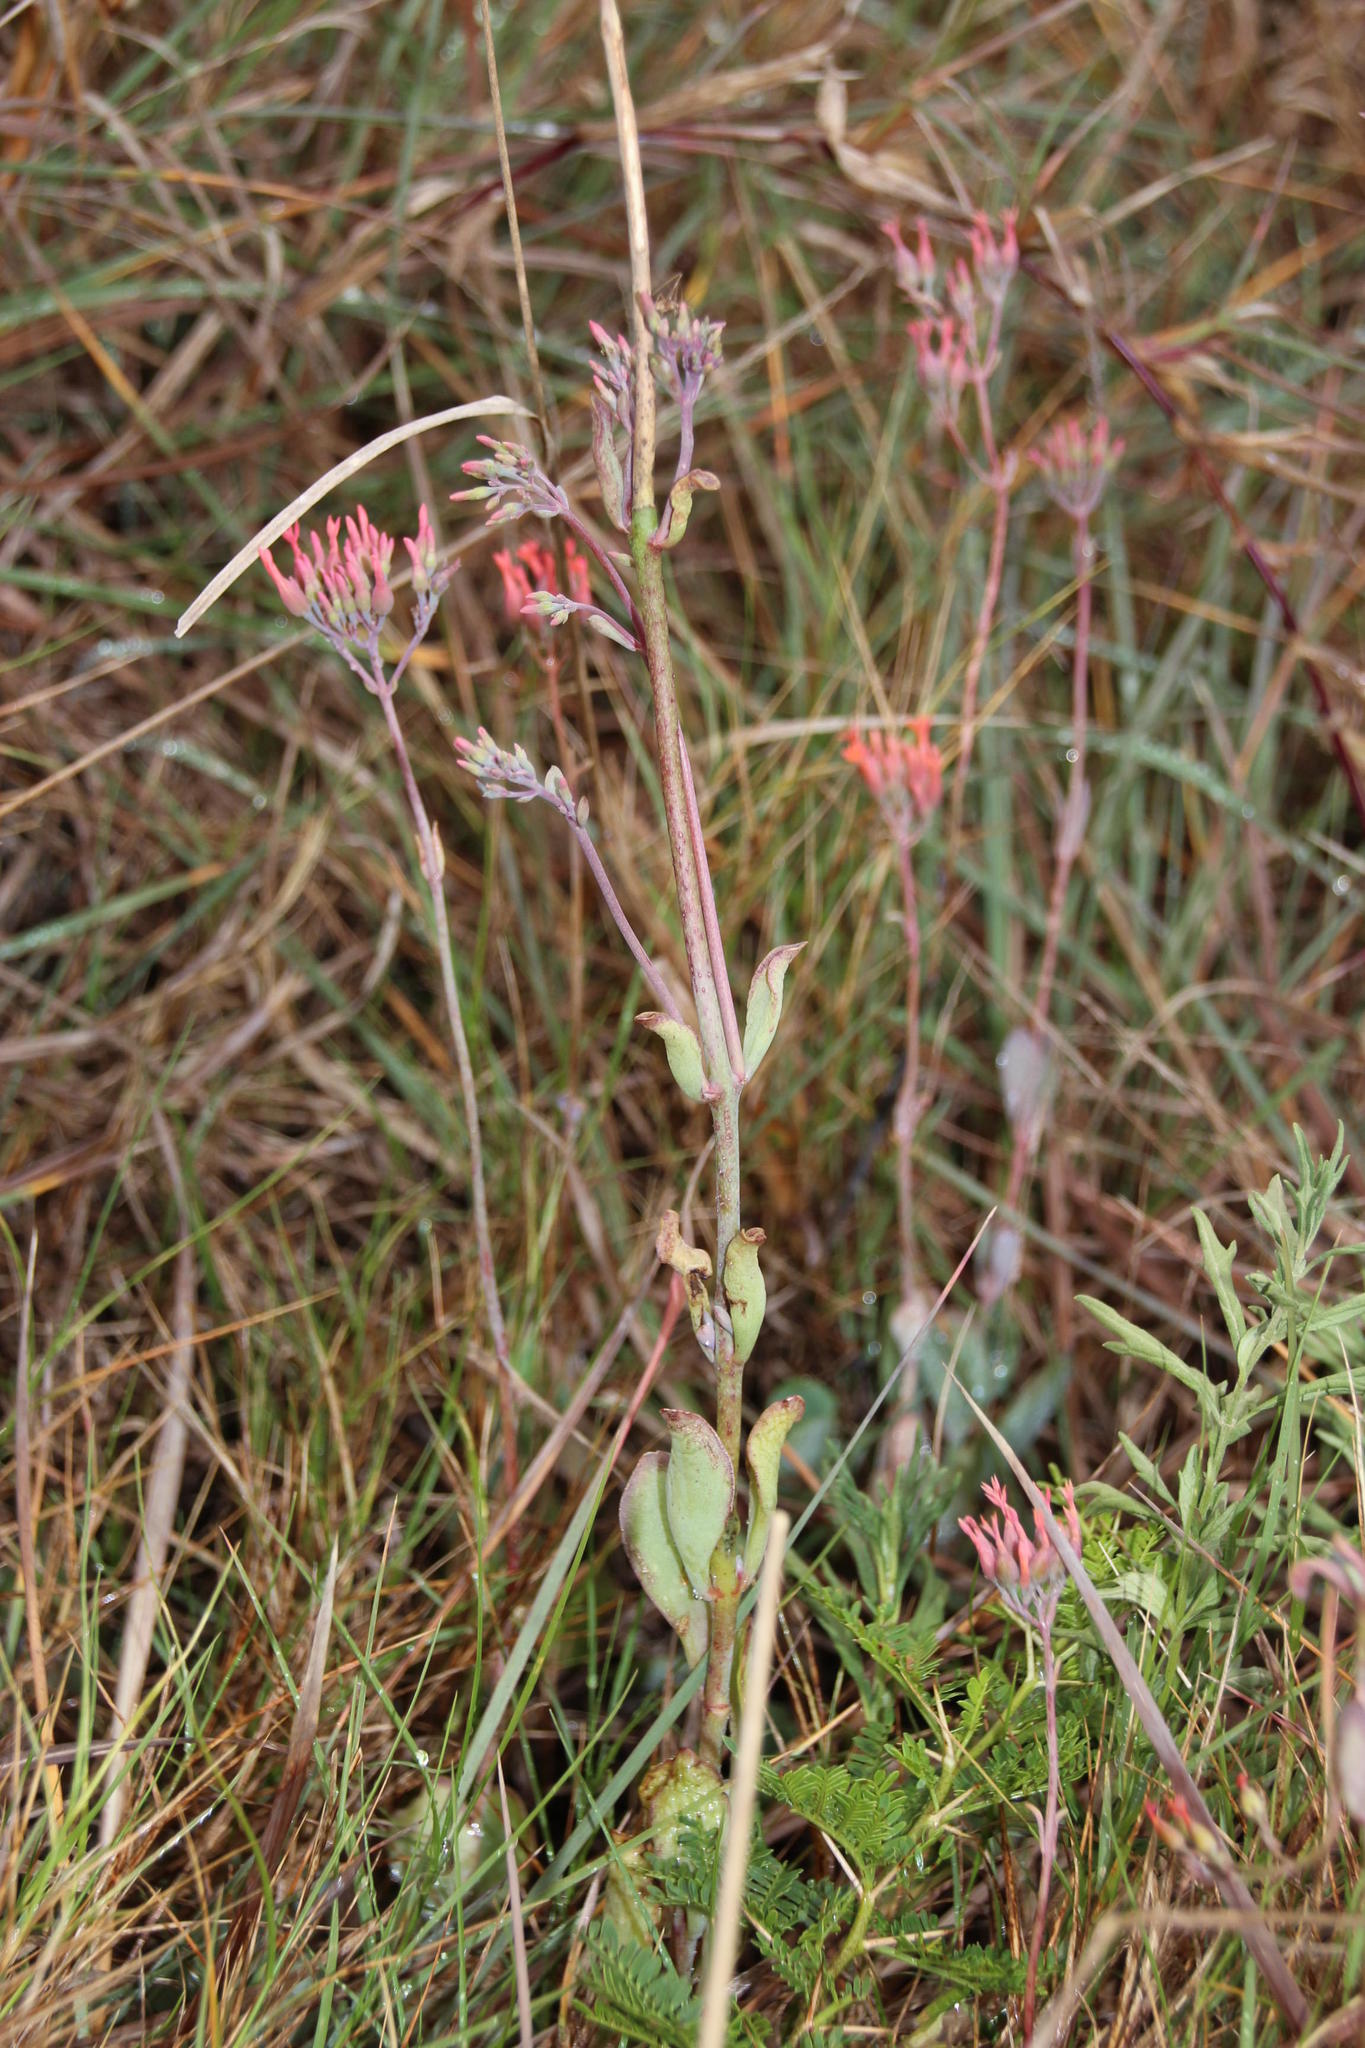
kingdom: Plantae
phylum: Tracheophyta
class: Magnoliopsida
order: Saxifragales
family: Crassulaceae
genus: Kalanchoe
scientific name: Kalanchoe rotundifolia
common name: Common kalanchoe
